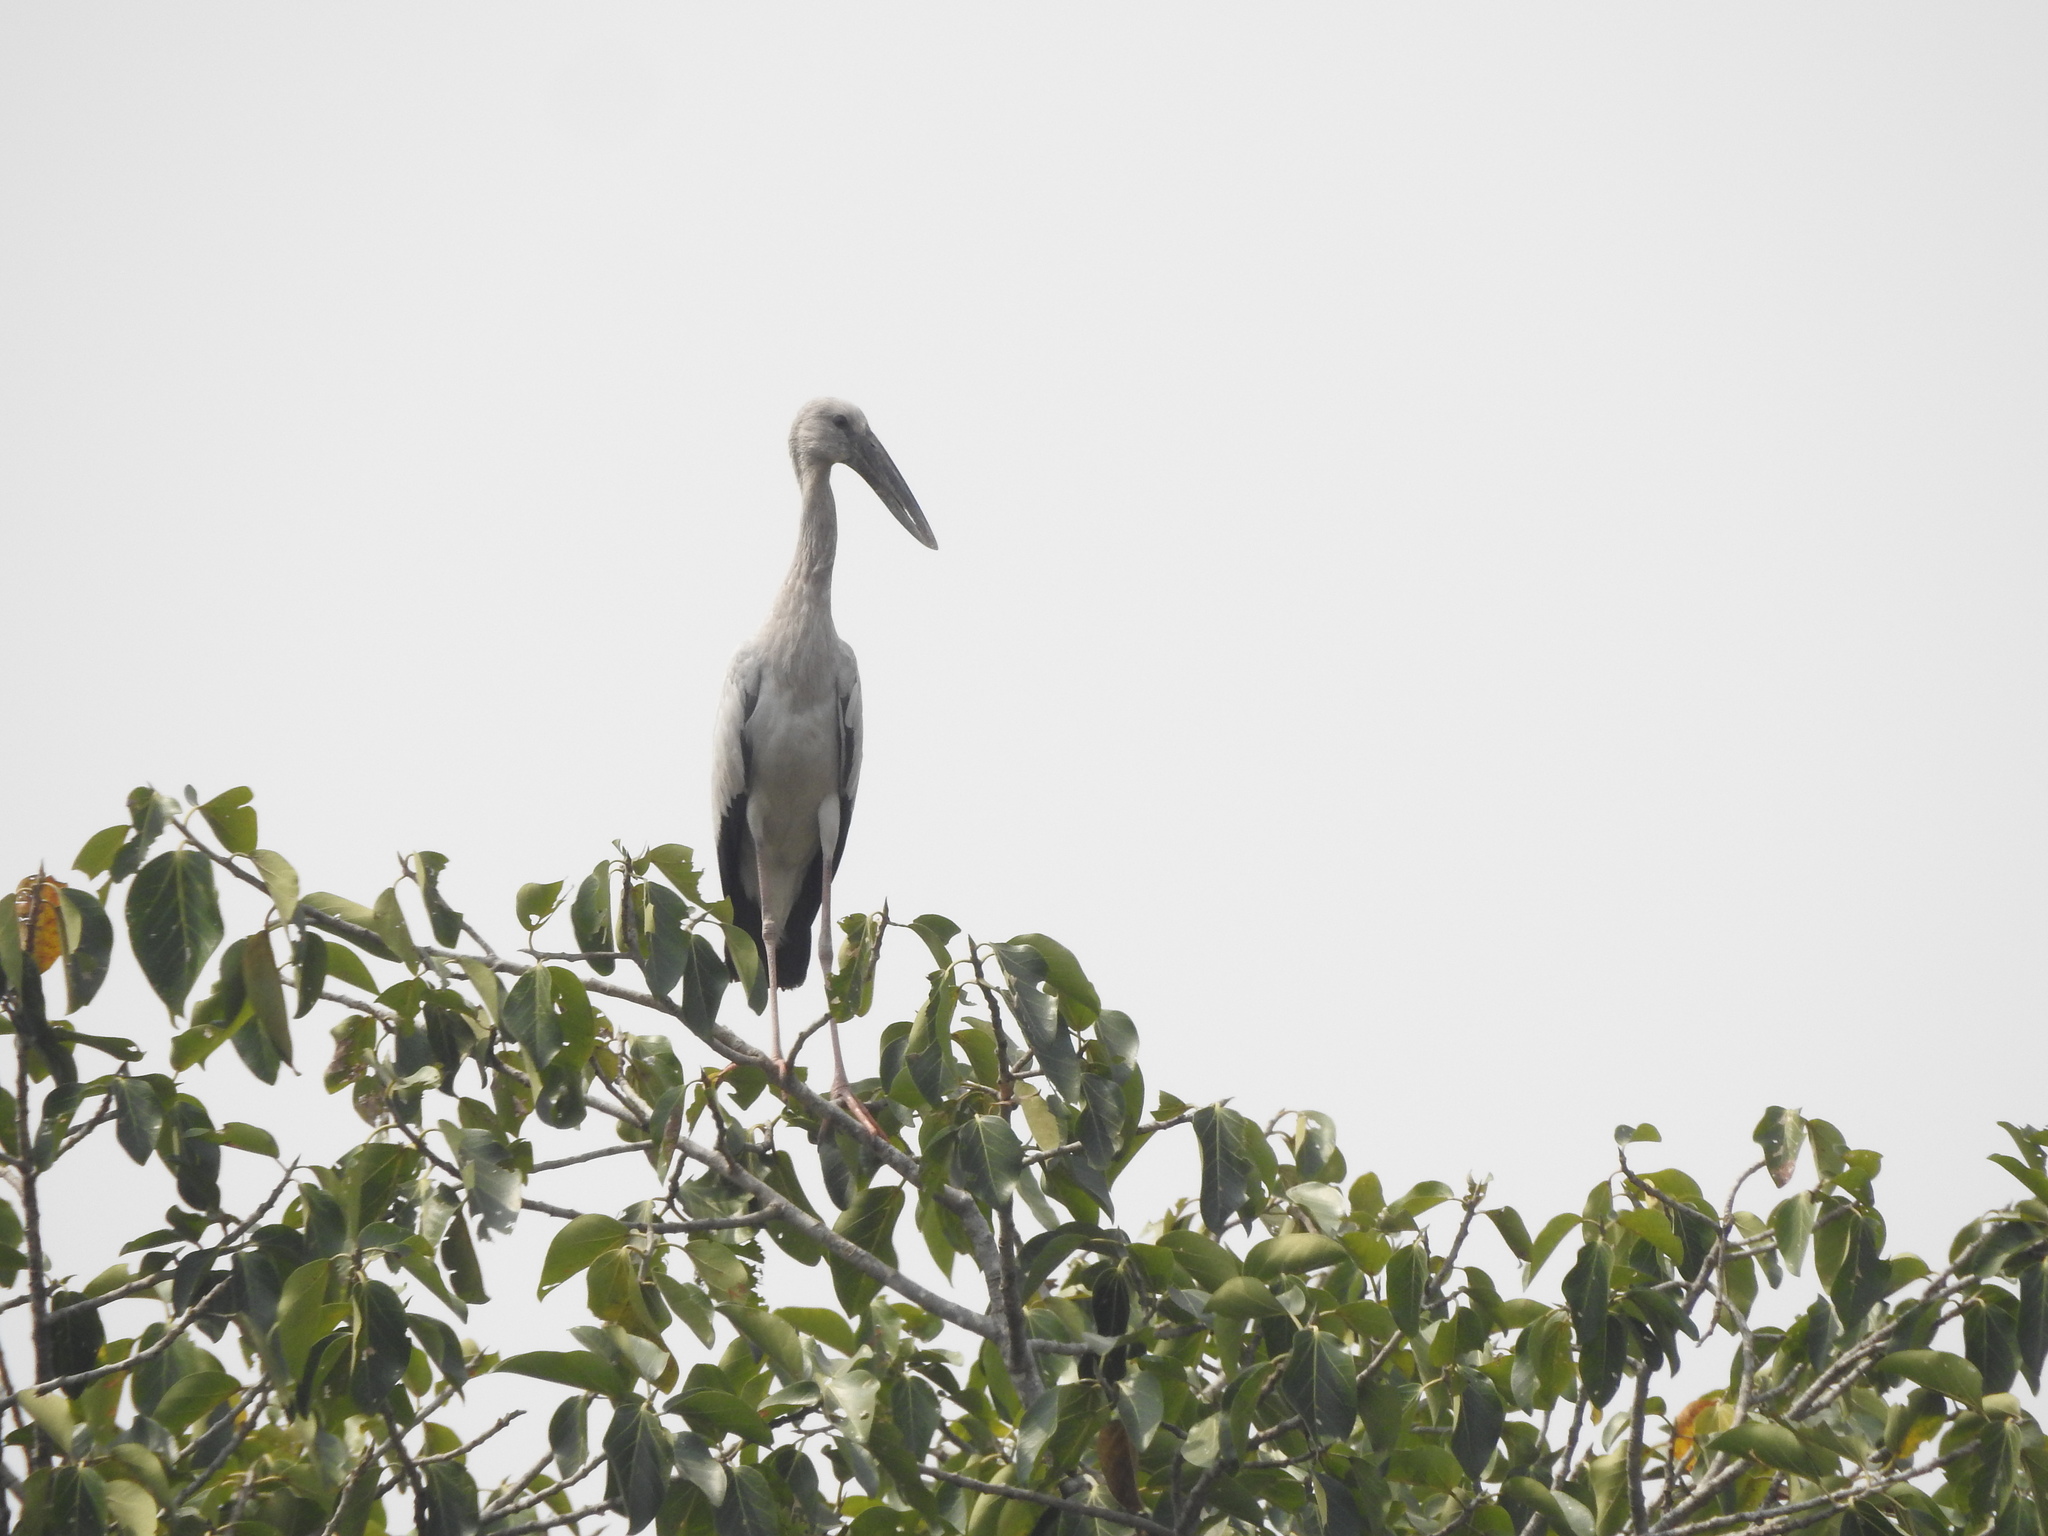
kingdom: Animalia
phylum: Chordata
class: Aves
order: Ciconiiformes
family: Ciconiidae
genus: Anastomus
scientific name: Anastomus oscitans
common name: Asian openbill
